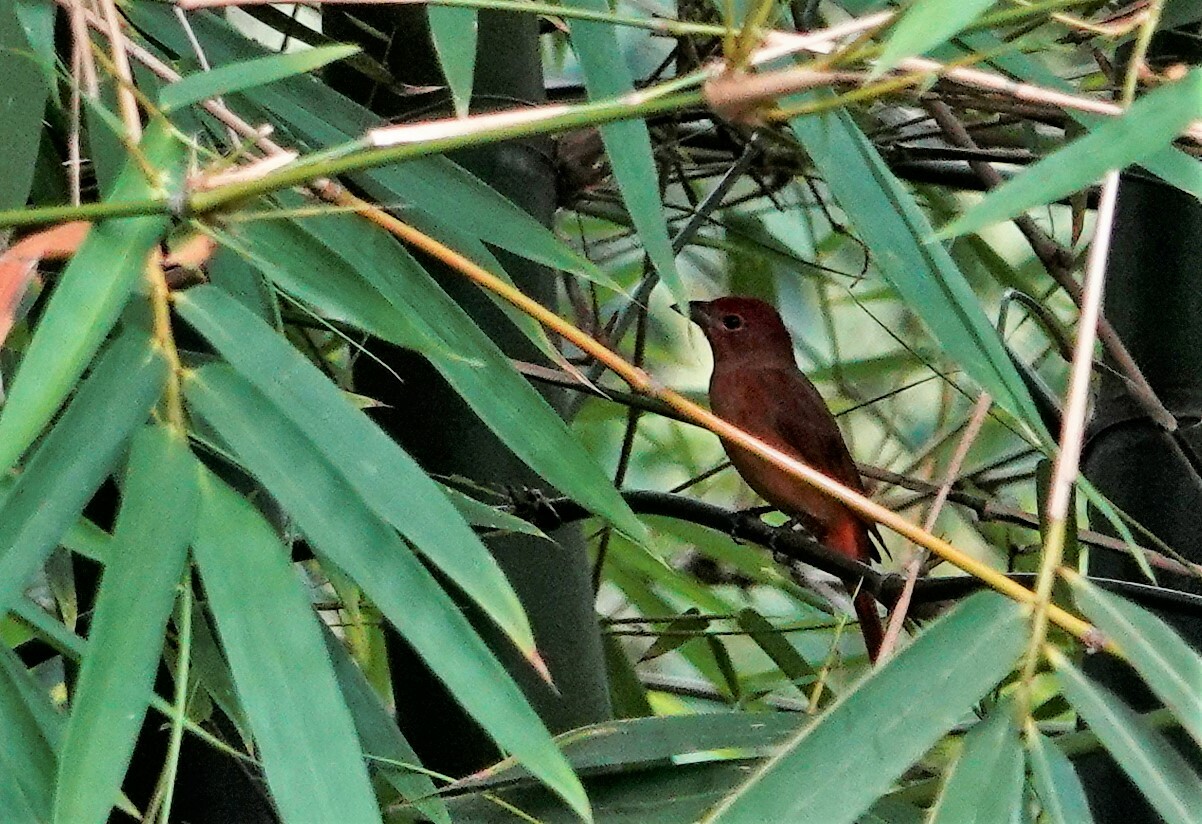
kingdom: Animalia
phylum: Chordata
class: Aves
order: Passeriformes
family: Cardinalidae
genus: Piranga
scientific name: Piranga flava
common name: Red tanager
